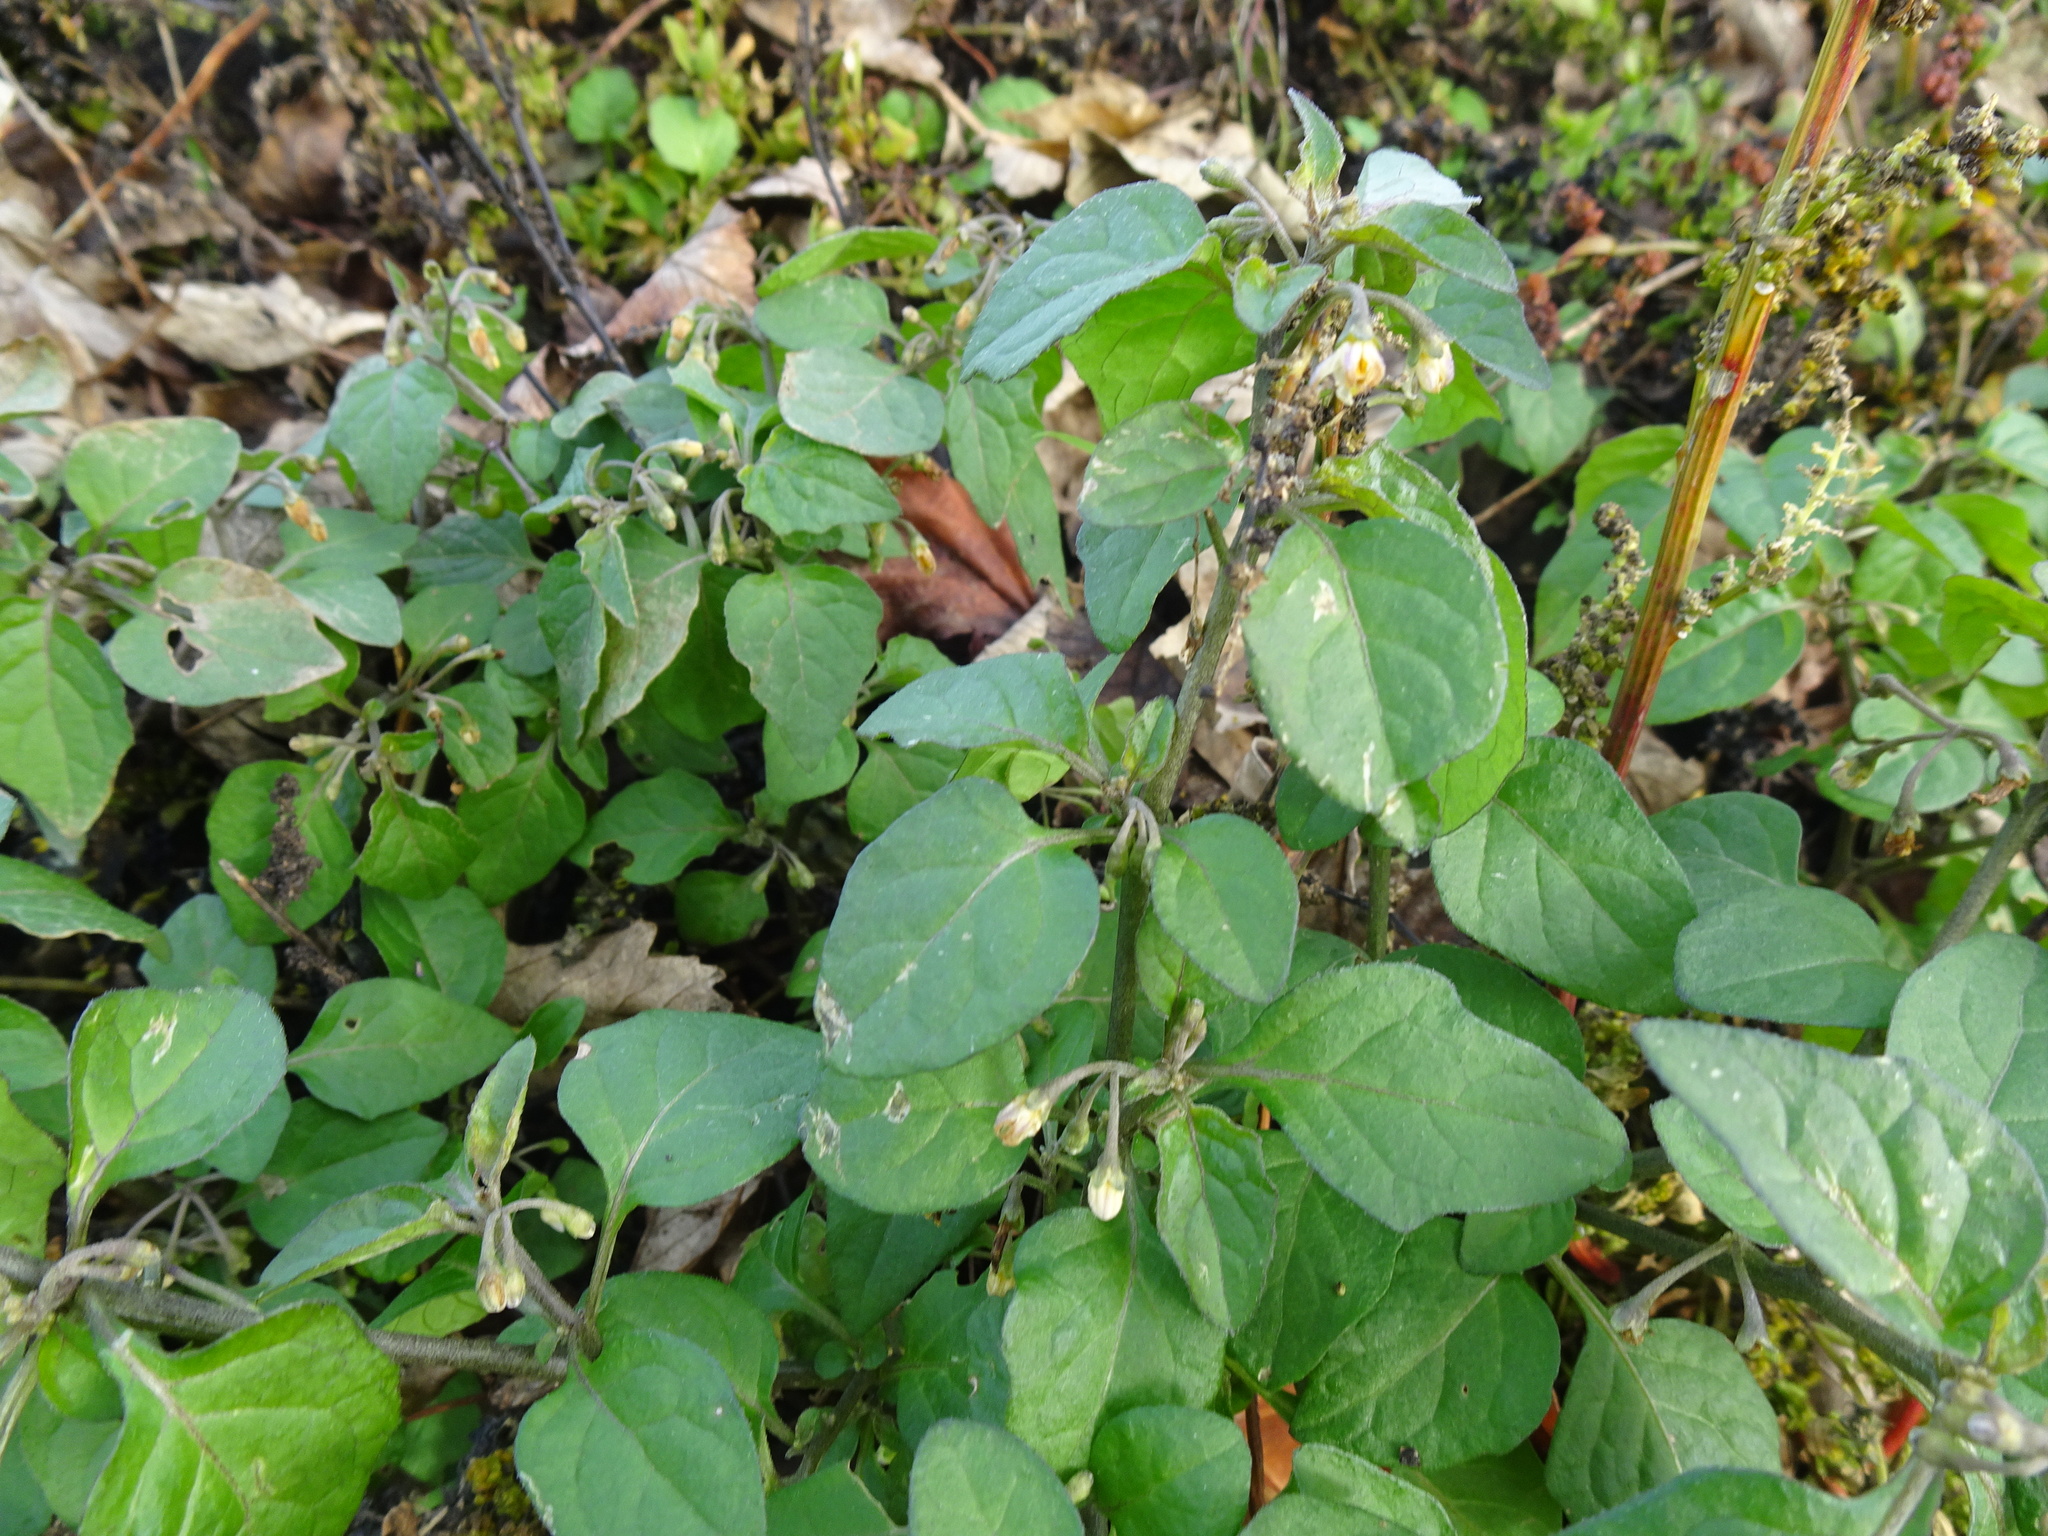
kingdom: Plantae
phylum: Tracheophyta
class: Magnoliopsida
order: Solanales
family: Solanaceae
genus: Solanum
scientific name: Solanum nigrum
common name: Black nightshade
